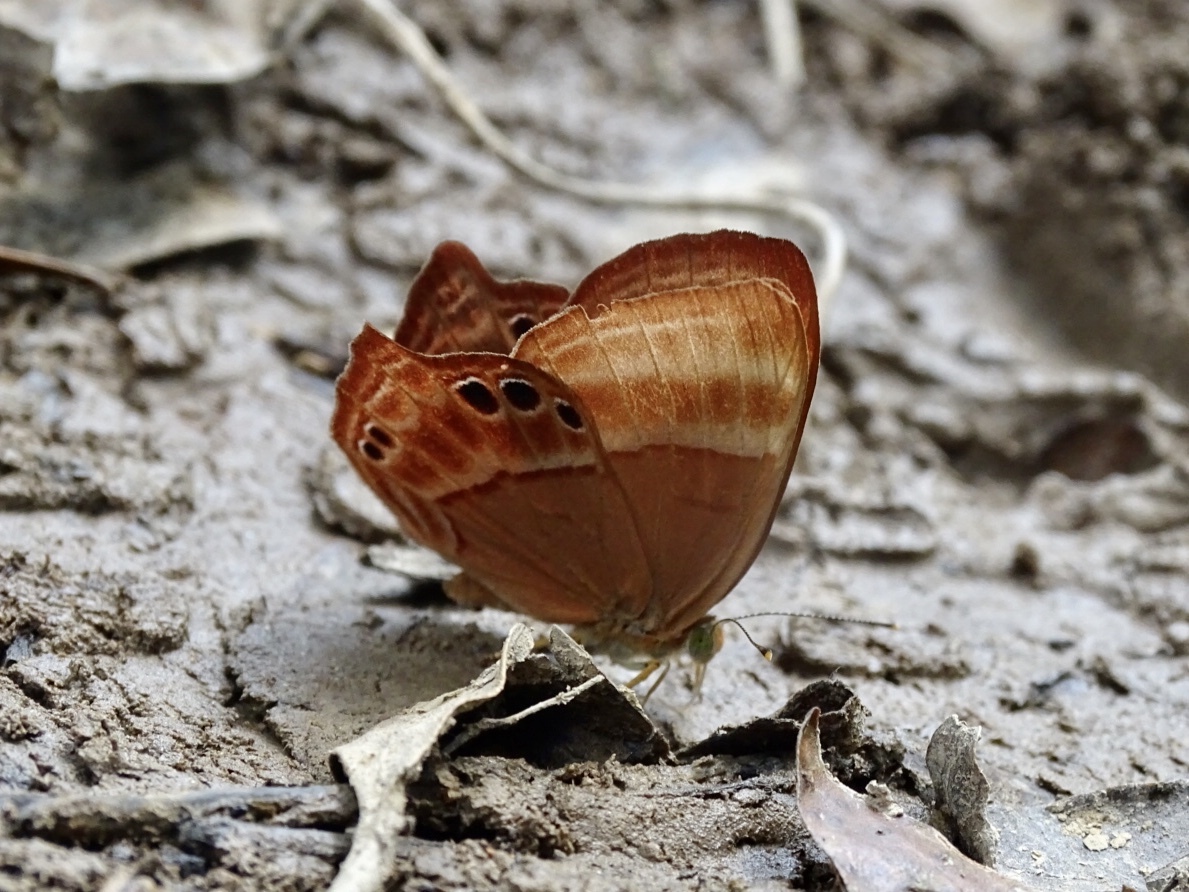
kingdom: Animalia
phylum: Arthropoda
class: Insecta
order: Lepidoptera
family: Lycaenidae
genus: Abisara
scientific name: Abisara echeria
